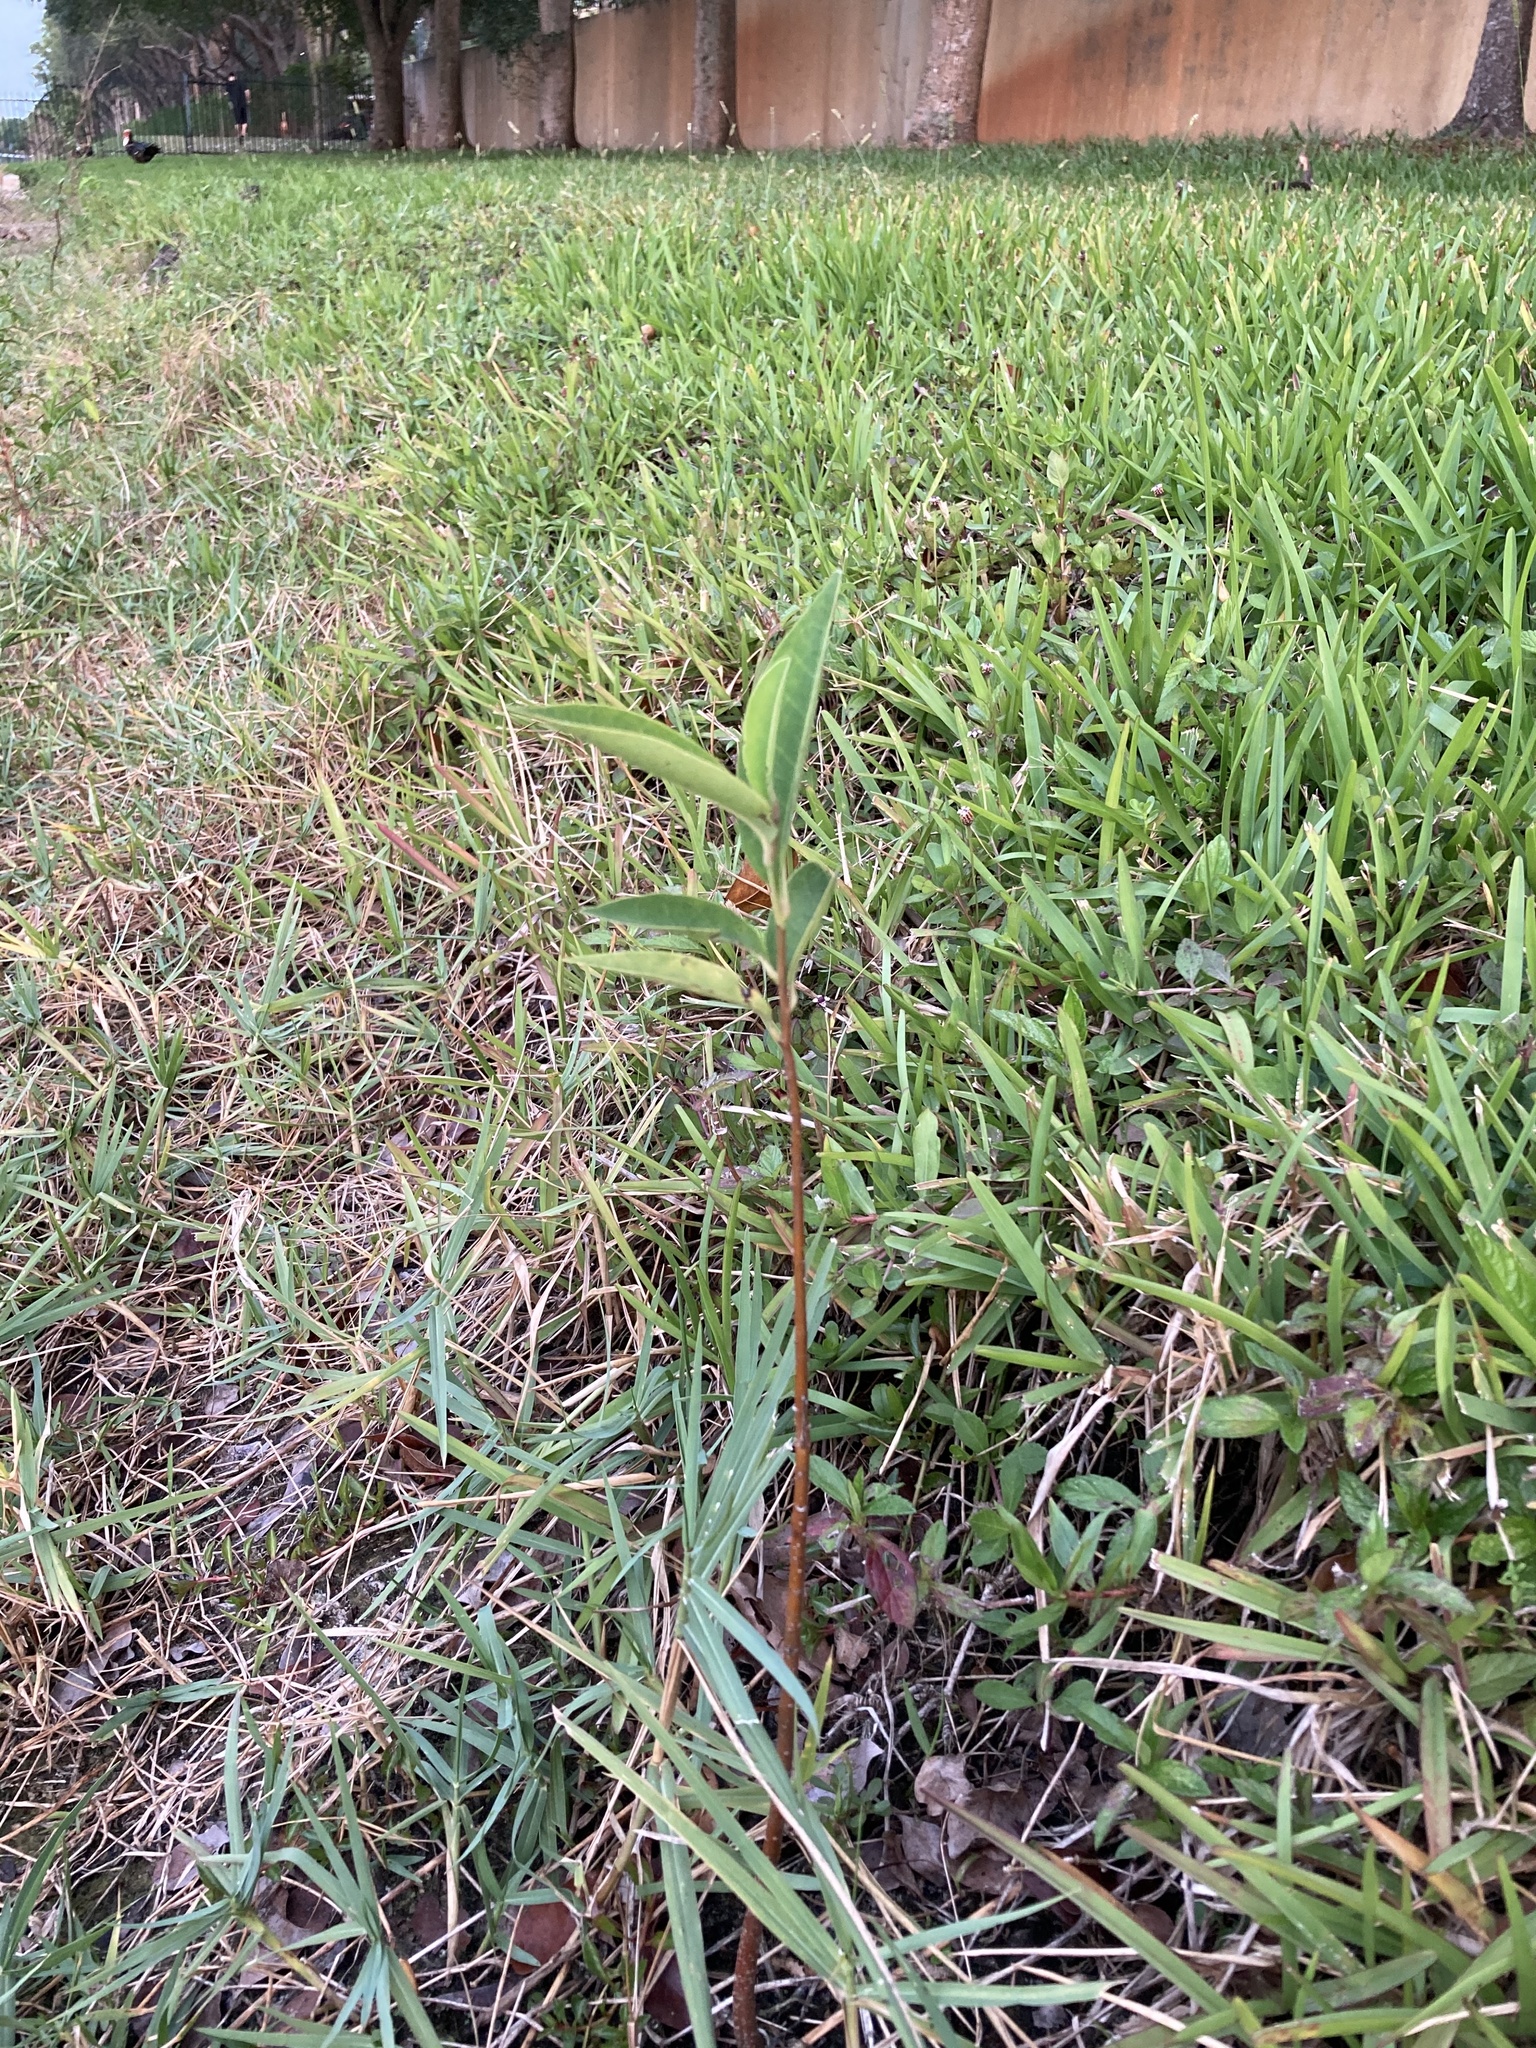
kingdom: Plantae
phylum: Tracheophyta
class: Magnoliopsida
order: Magnoliales
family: Annonaceae
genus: Annona
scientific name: Annona glabra
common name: Monkey apple
